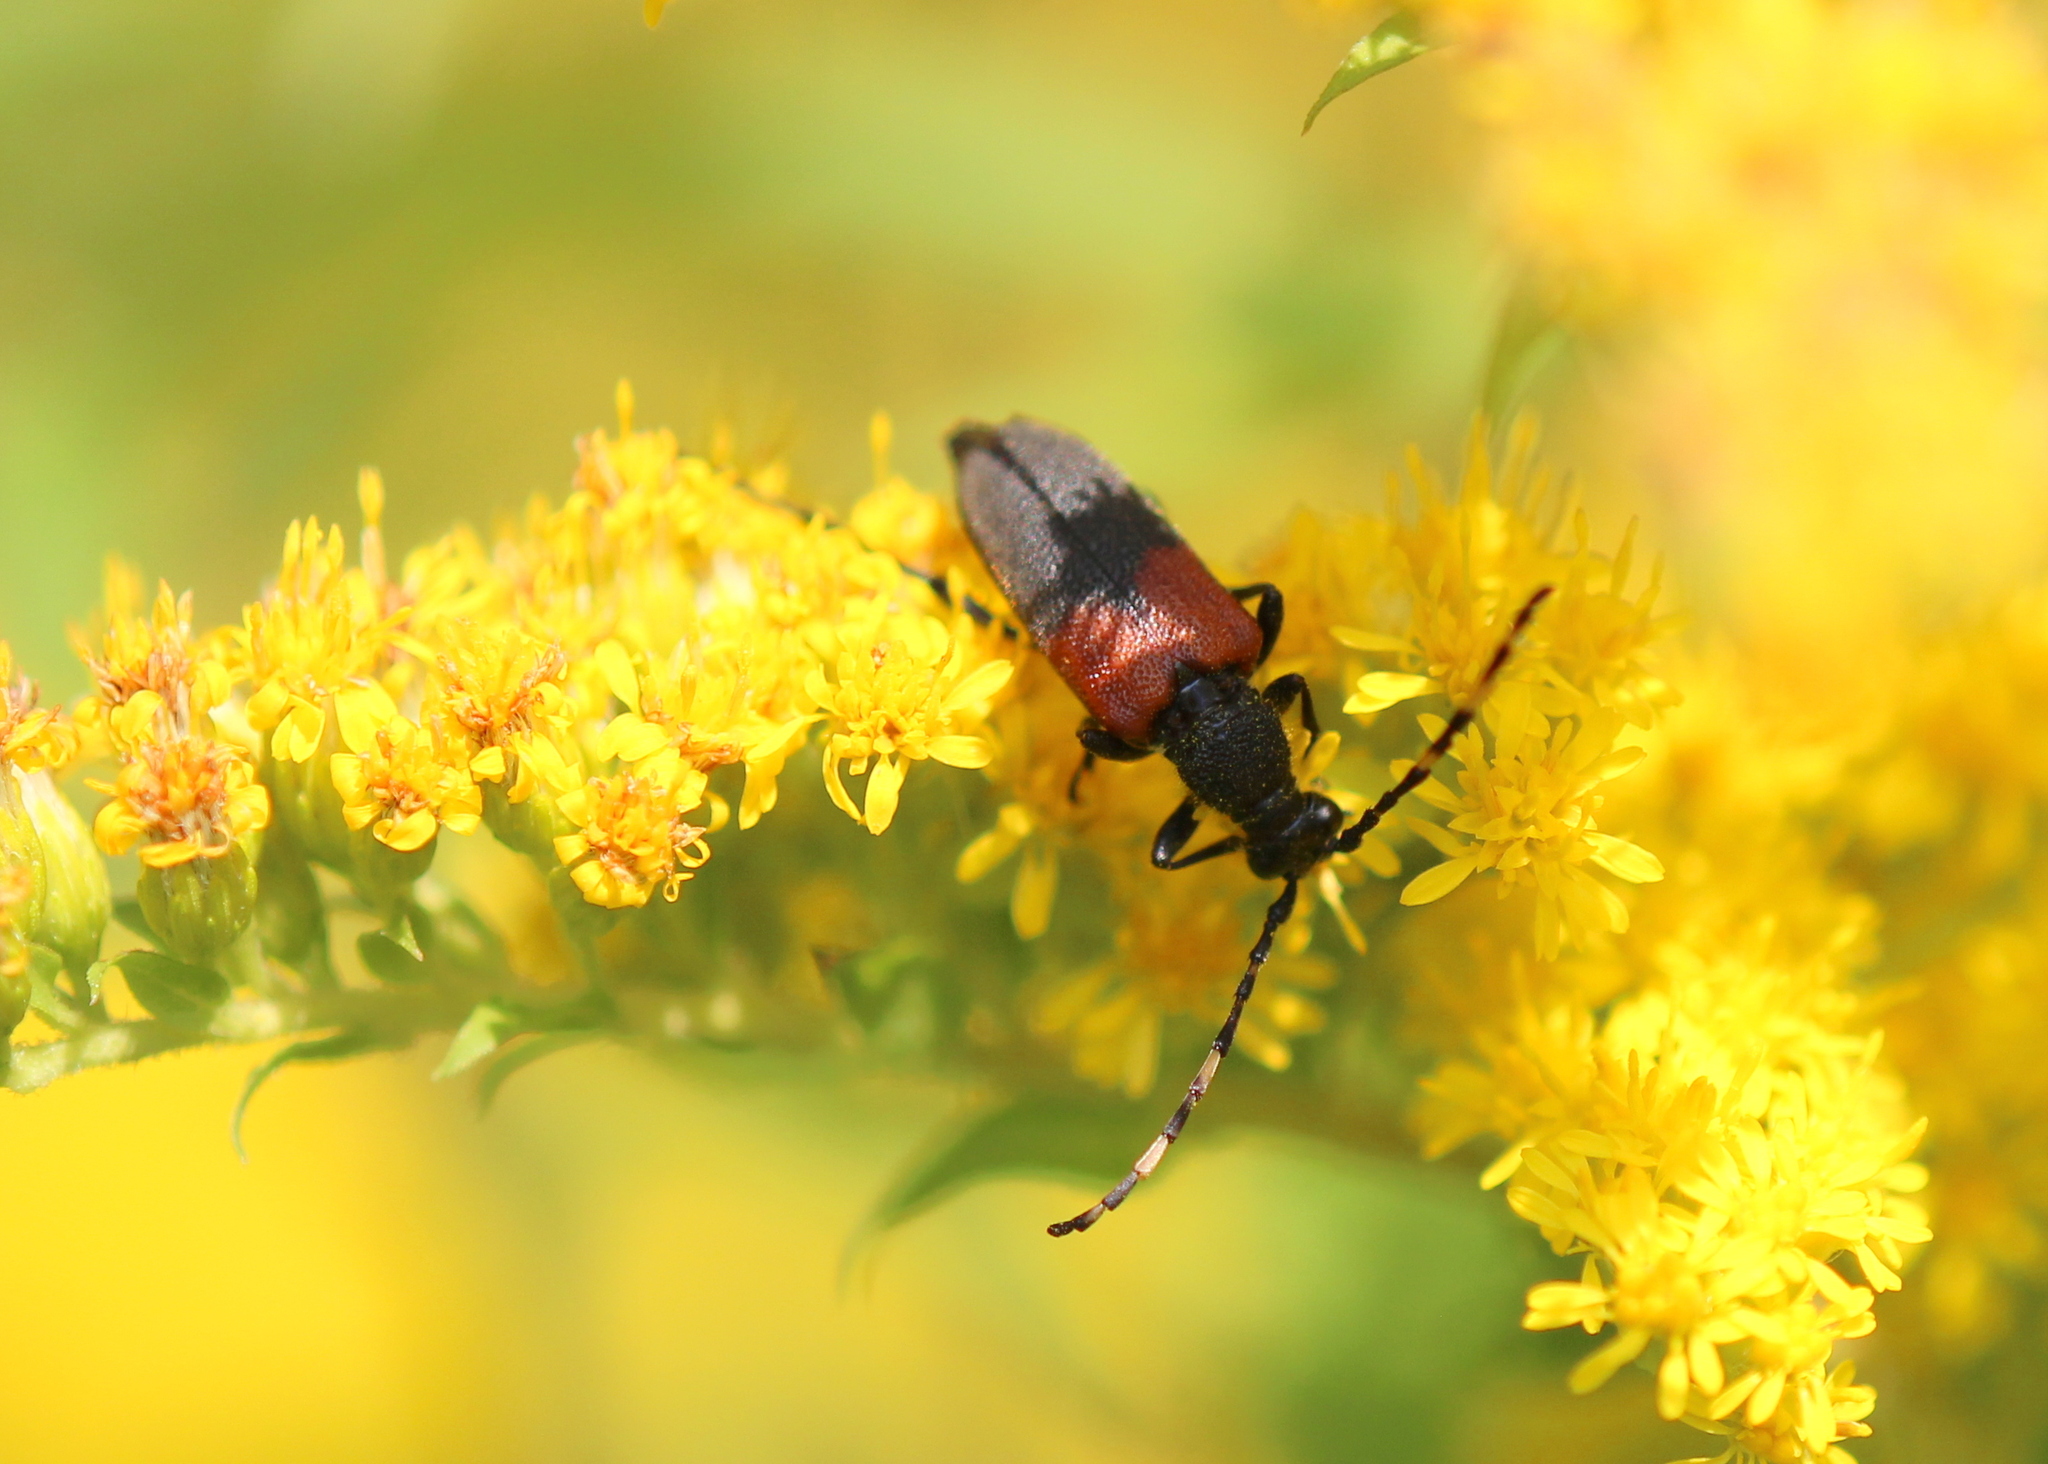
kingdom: Animalia
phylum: Arthropoda
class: Insecta
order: Coleoptera
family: Cerambycidae
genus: Stictoleptura
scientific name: Stictoleptura canadensis
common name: Red-shouldered pine borer
